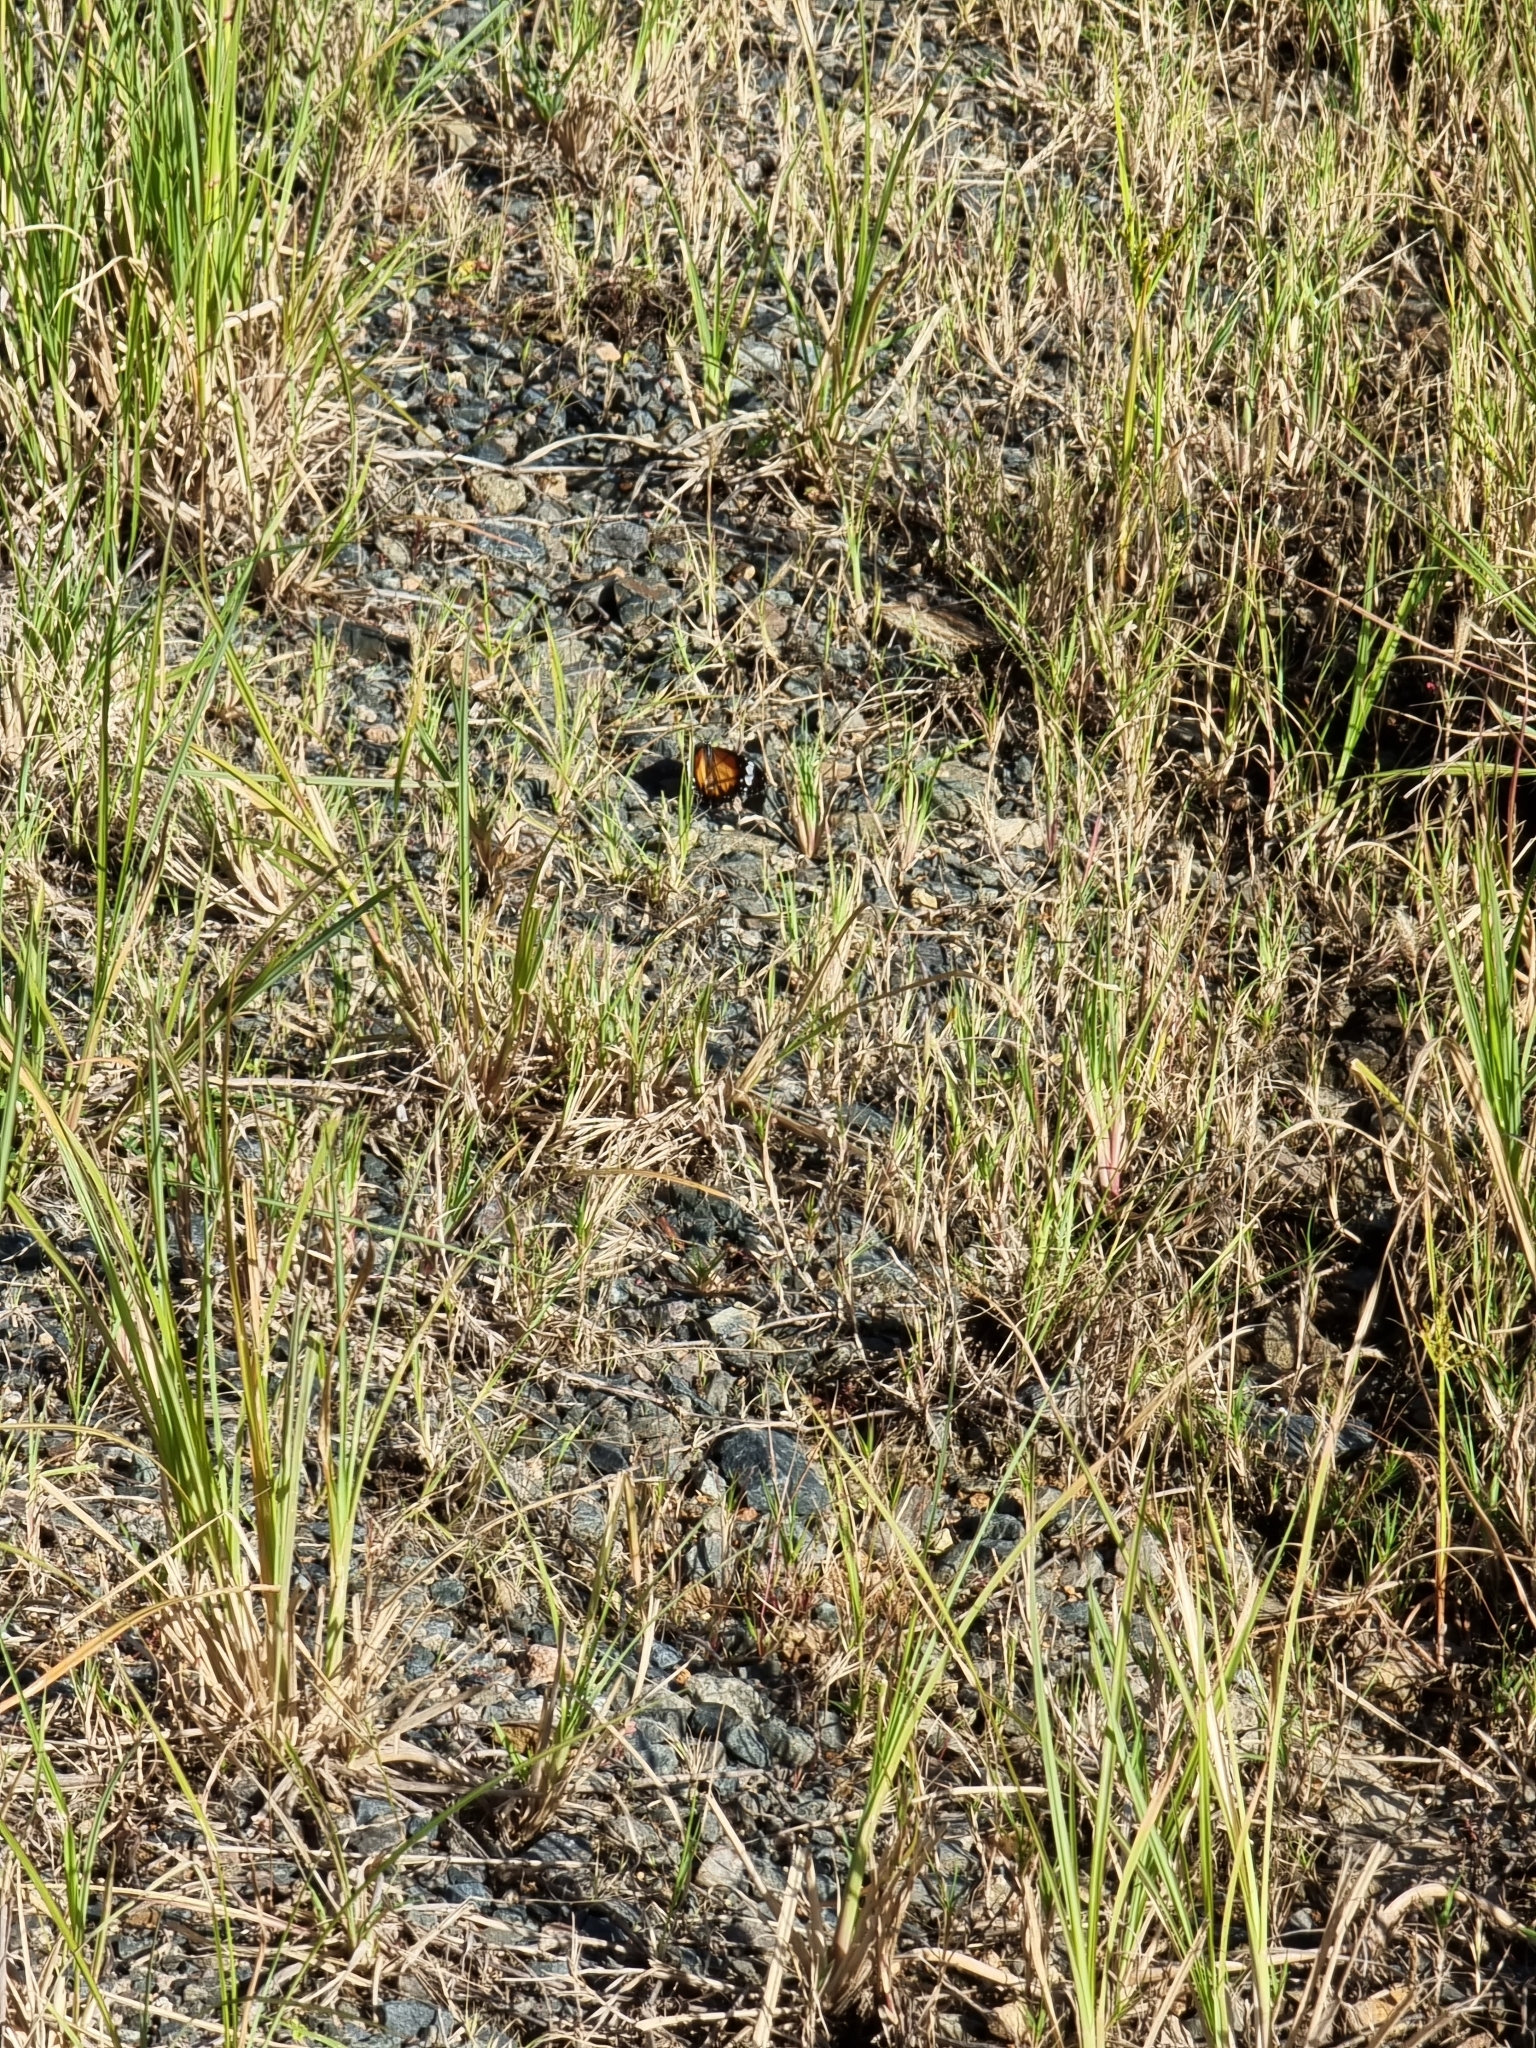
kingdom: Animalia
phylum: Arthropoda
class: Insecta
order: Lepidoptera
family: Nymphalidae
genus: Danaus
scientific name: Danaus chrysippus
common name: Plain tiger
